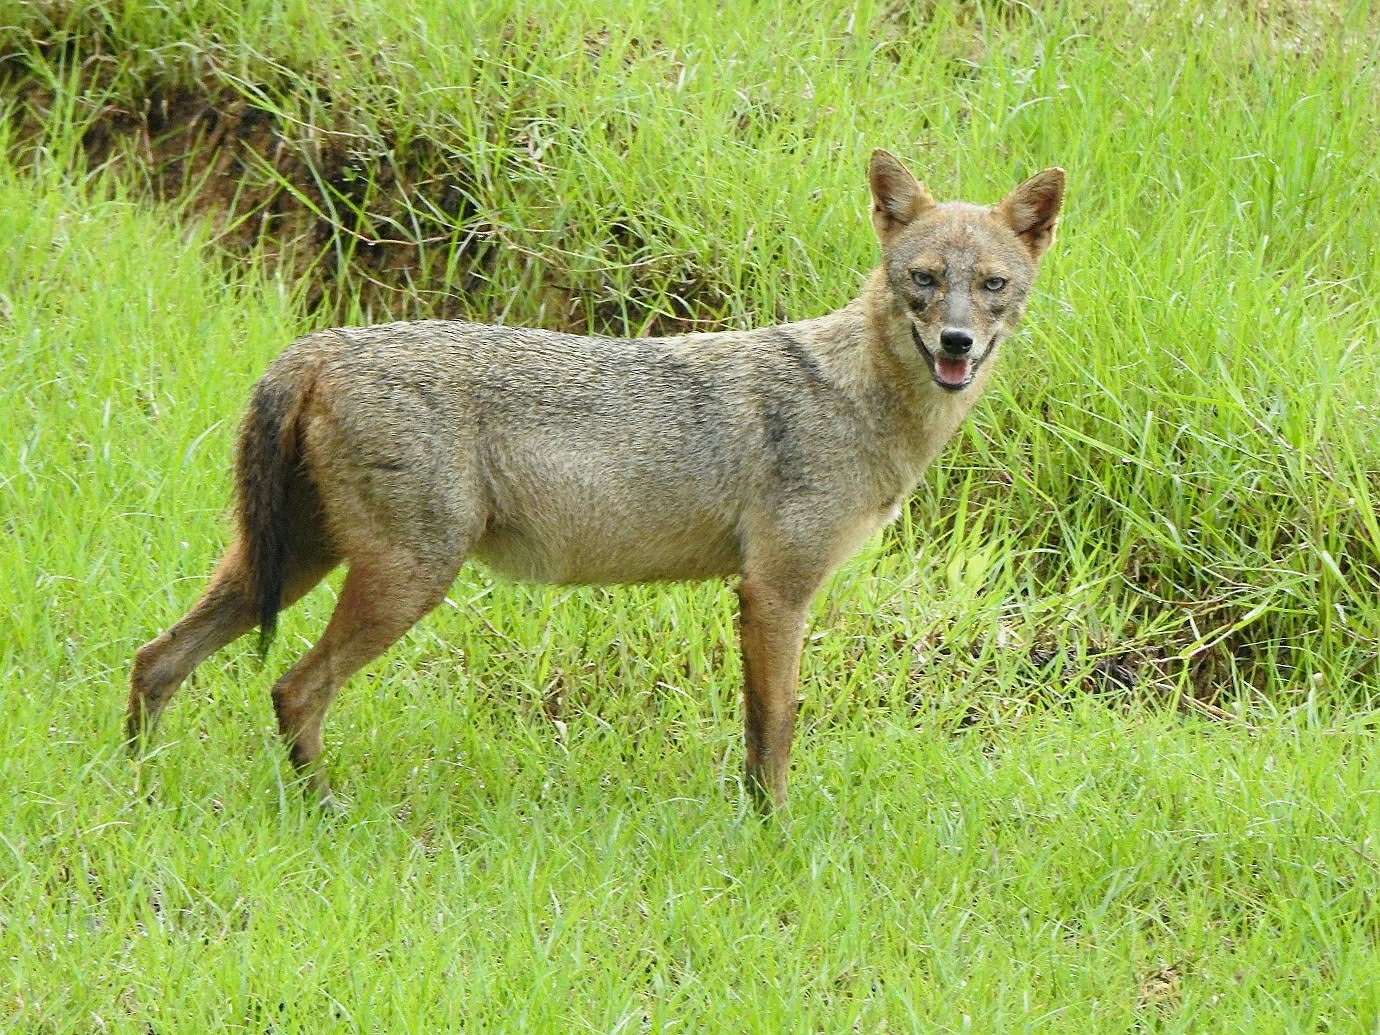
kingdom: Animalia
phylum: Chordata
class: Mammalia
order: Carnivora
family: Canidae
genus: Canis
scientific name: Canis aureus
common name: Golden jackal
